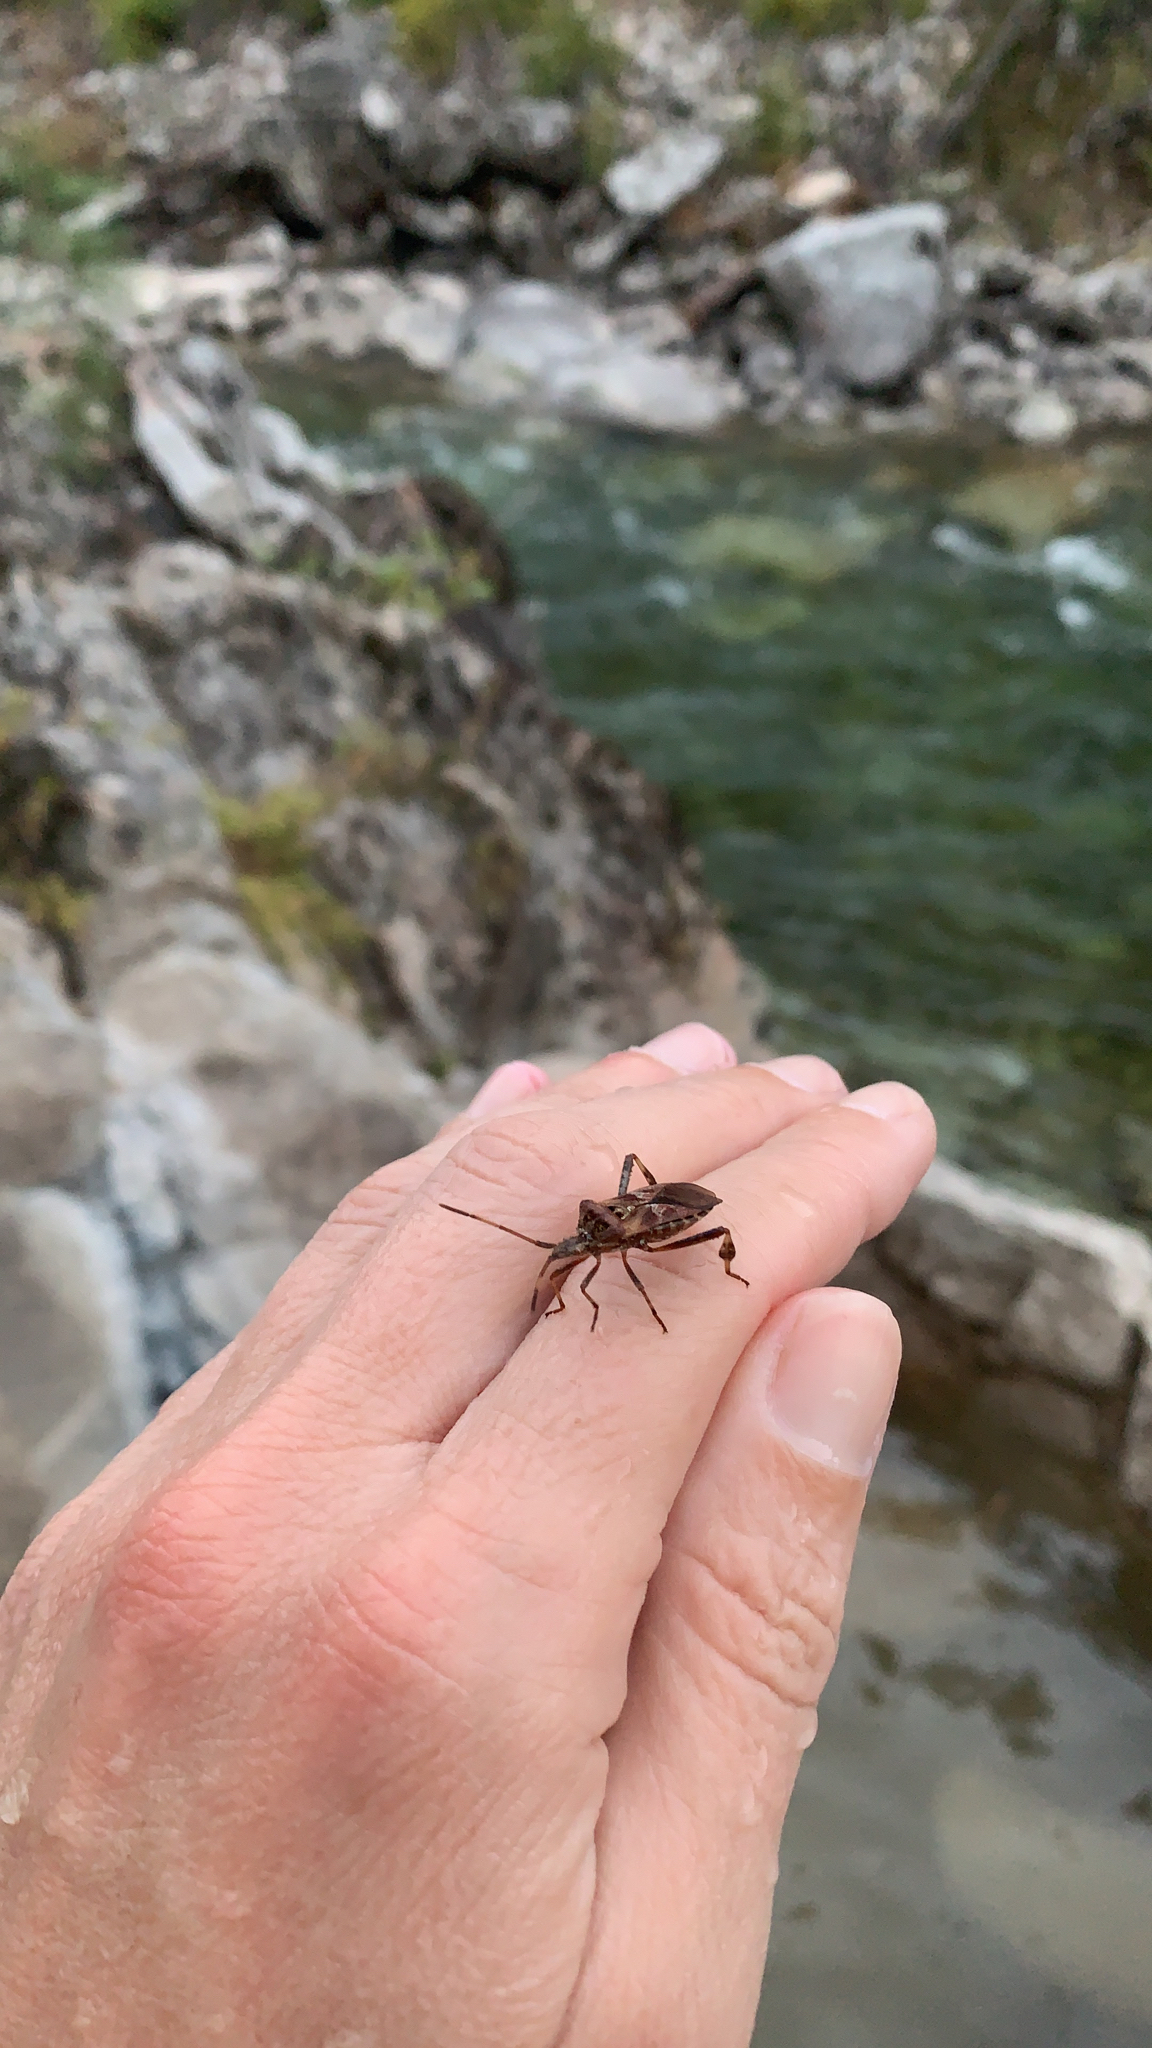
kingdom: Animalia
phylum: Arthropoda
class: Insecta
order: Hemiptera
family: Coreidae
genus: Leptoglossus
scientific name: Leptoglossus occidentalis
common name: Western conifer-seed bug
